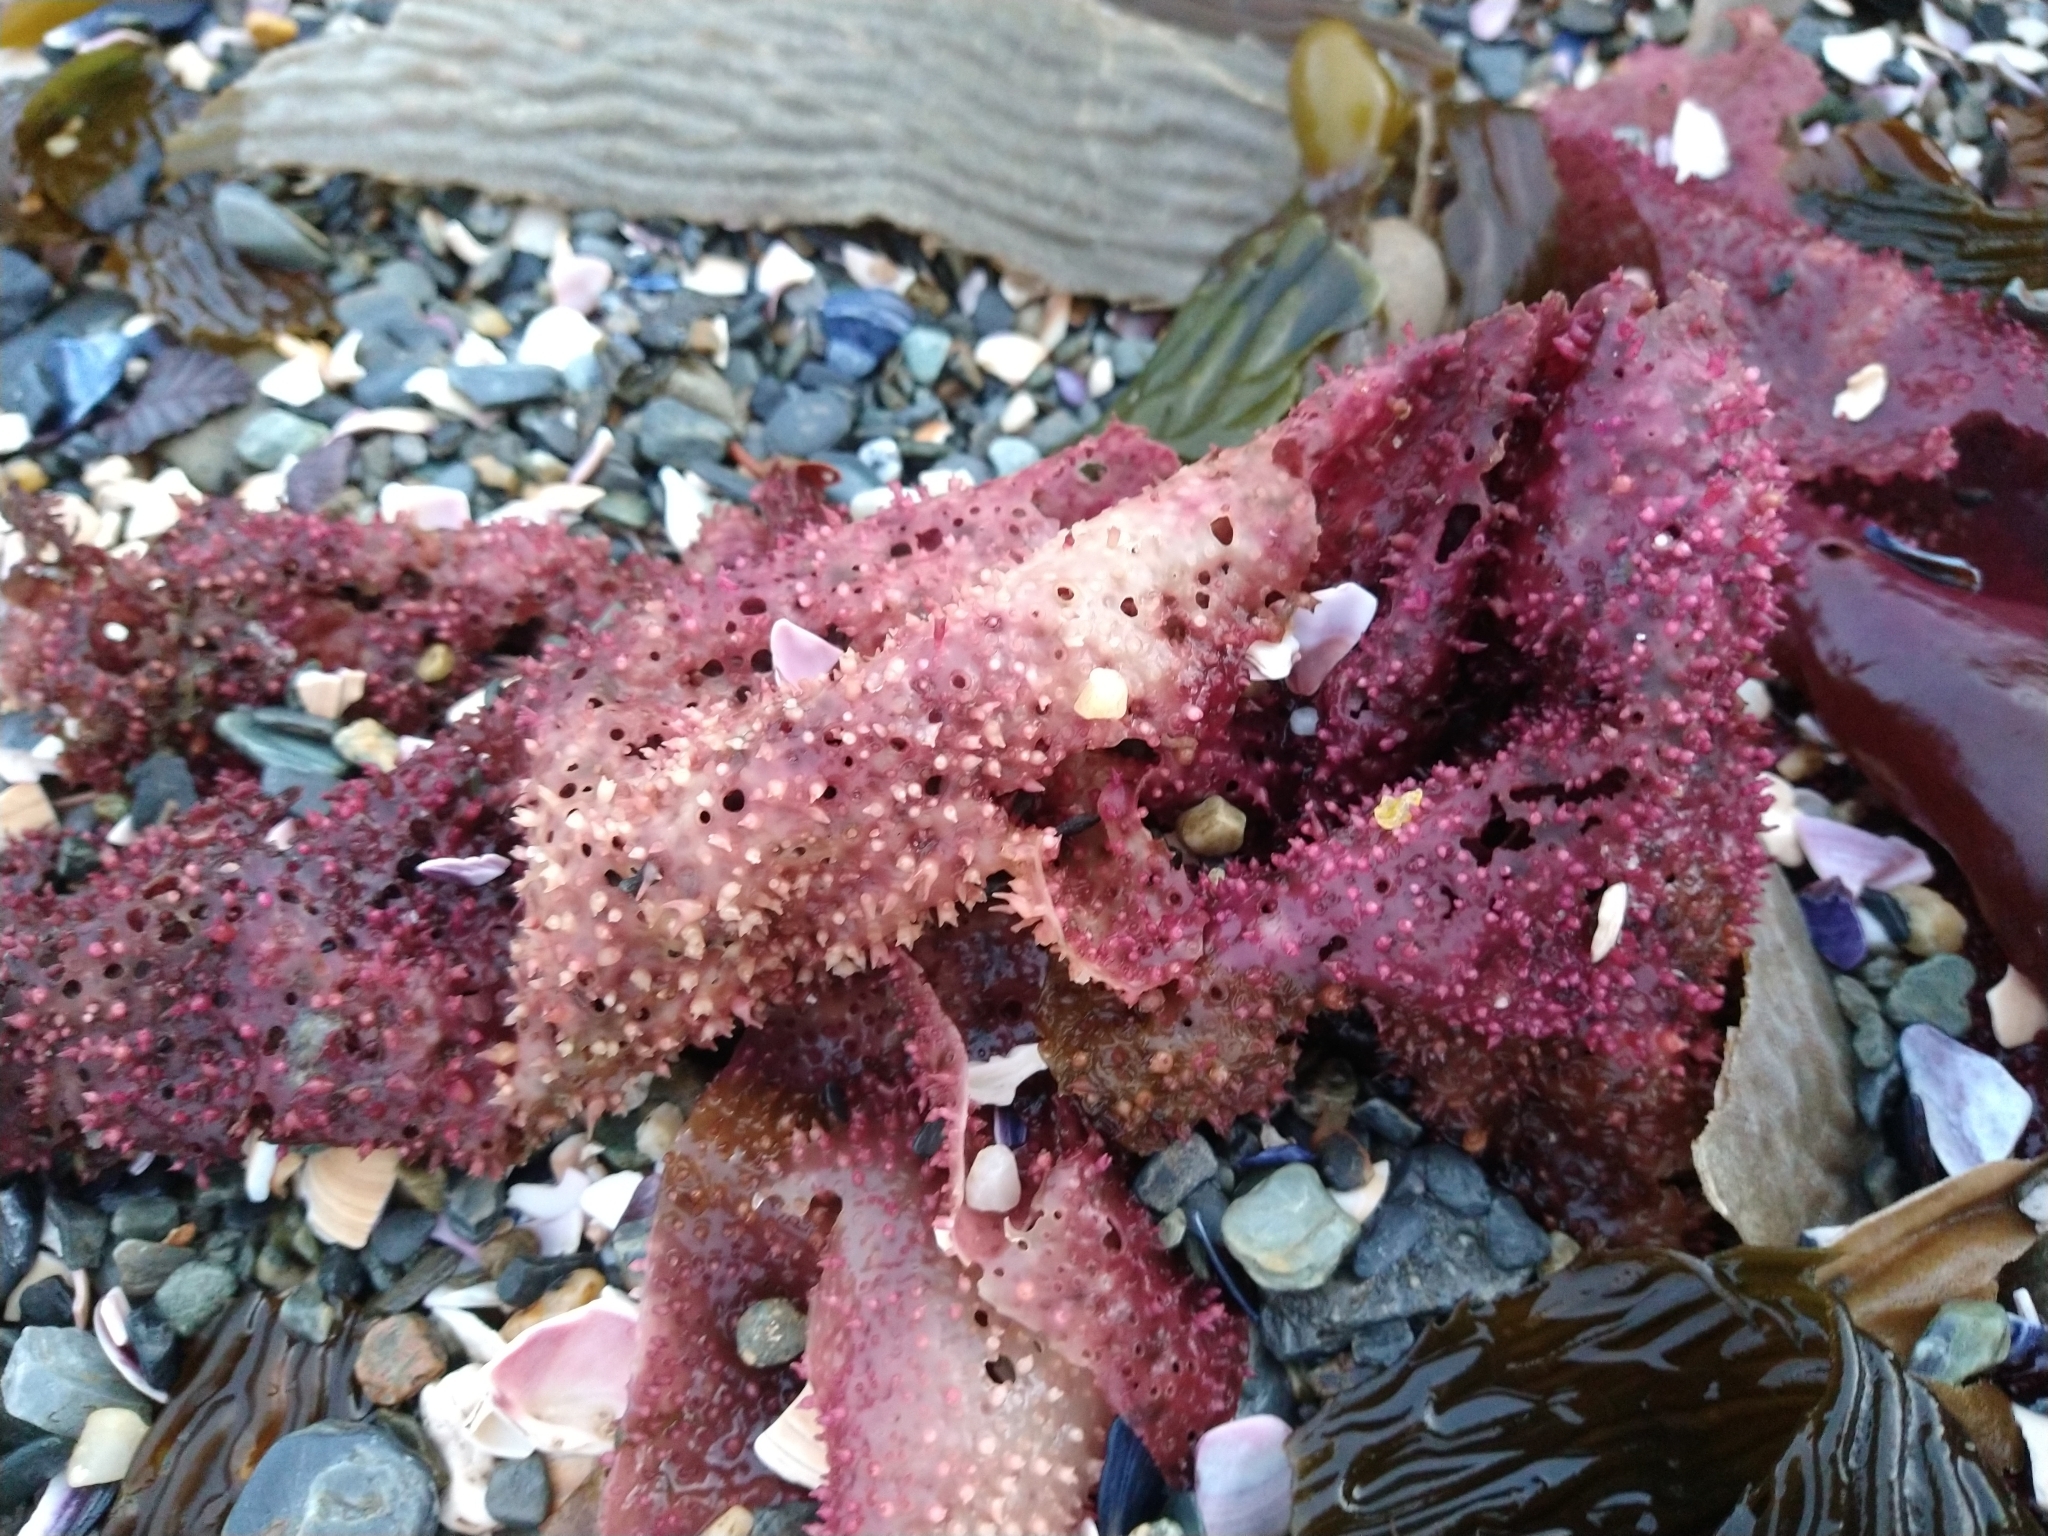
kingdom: Plantae
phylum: Rhodophyta
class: Florideophyceae
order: Gigartinales
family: Gigartinaceae
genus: Sarcothalia
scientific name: Sarcothalia
